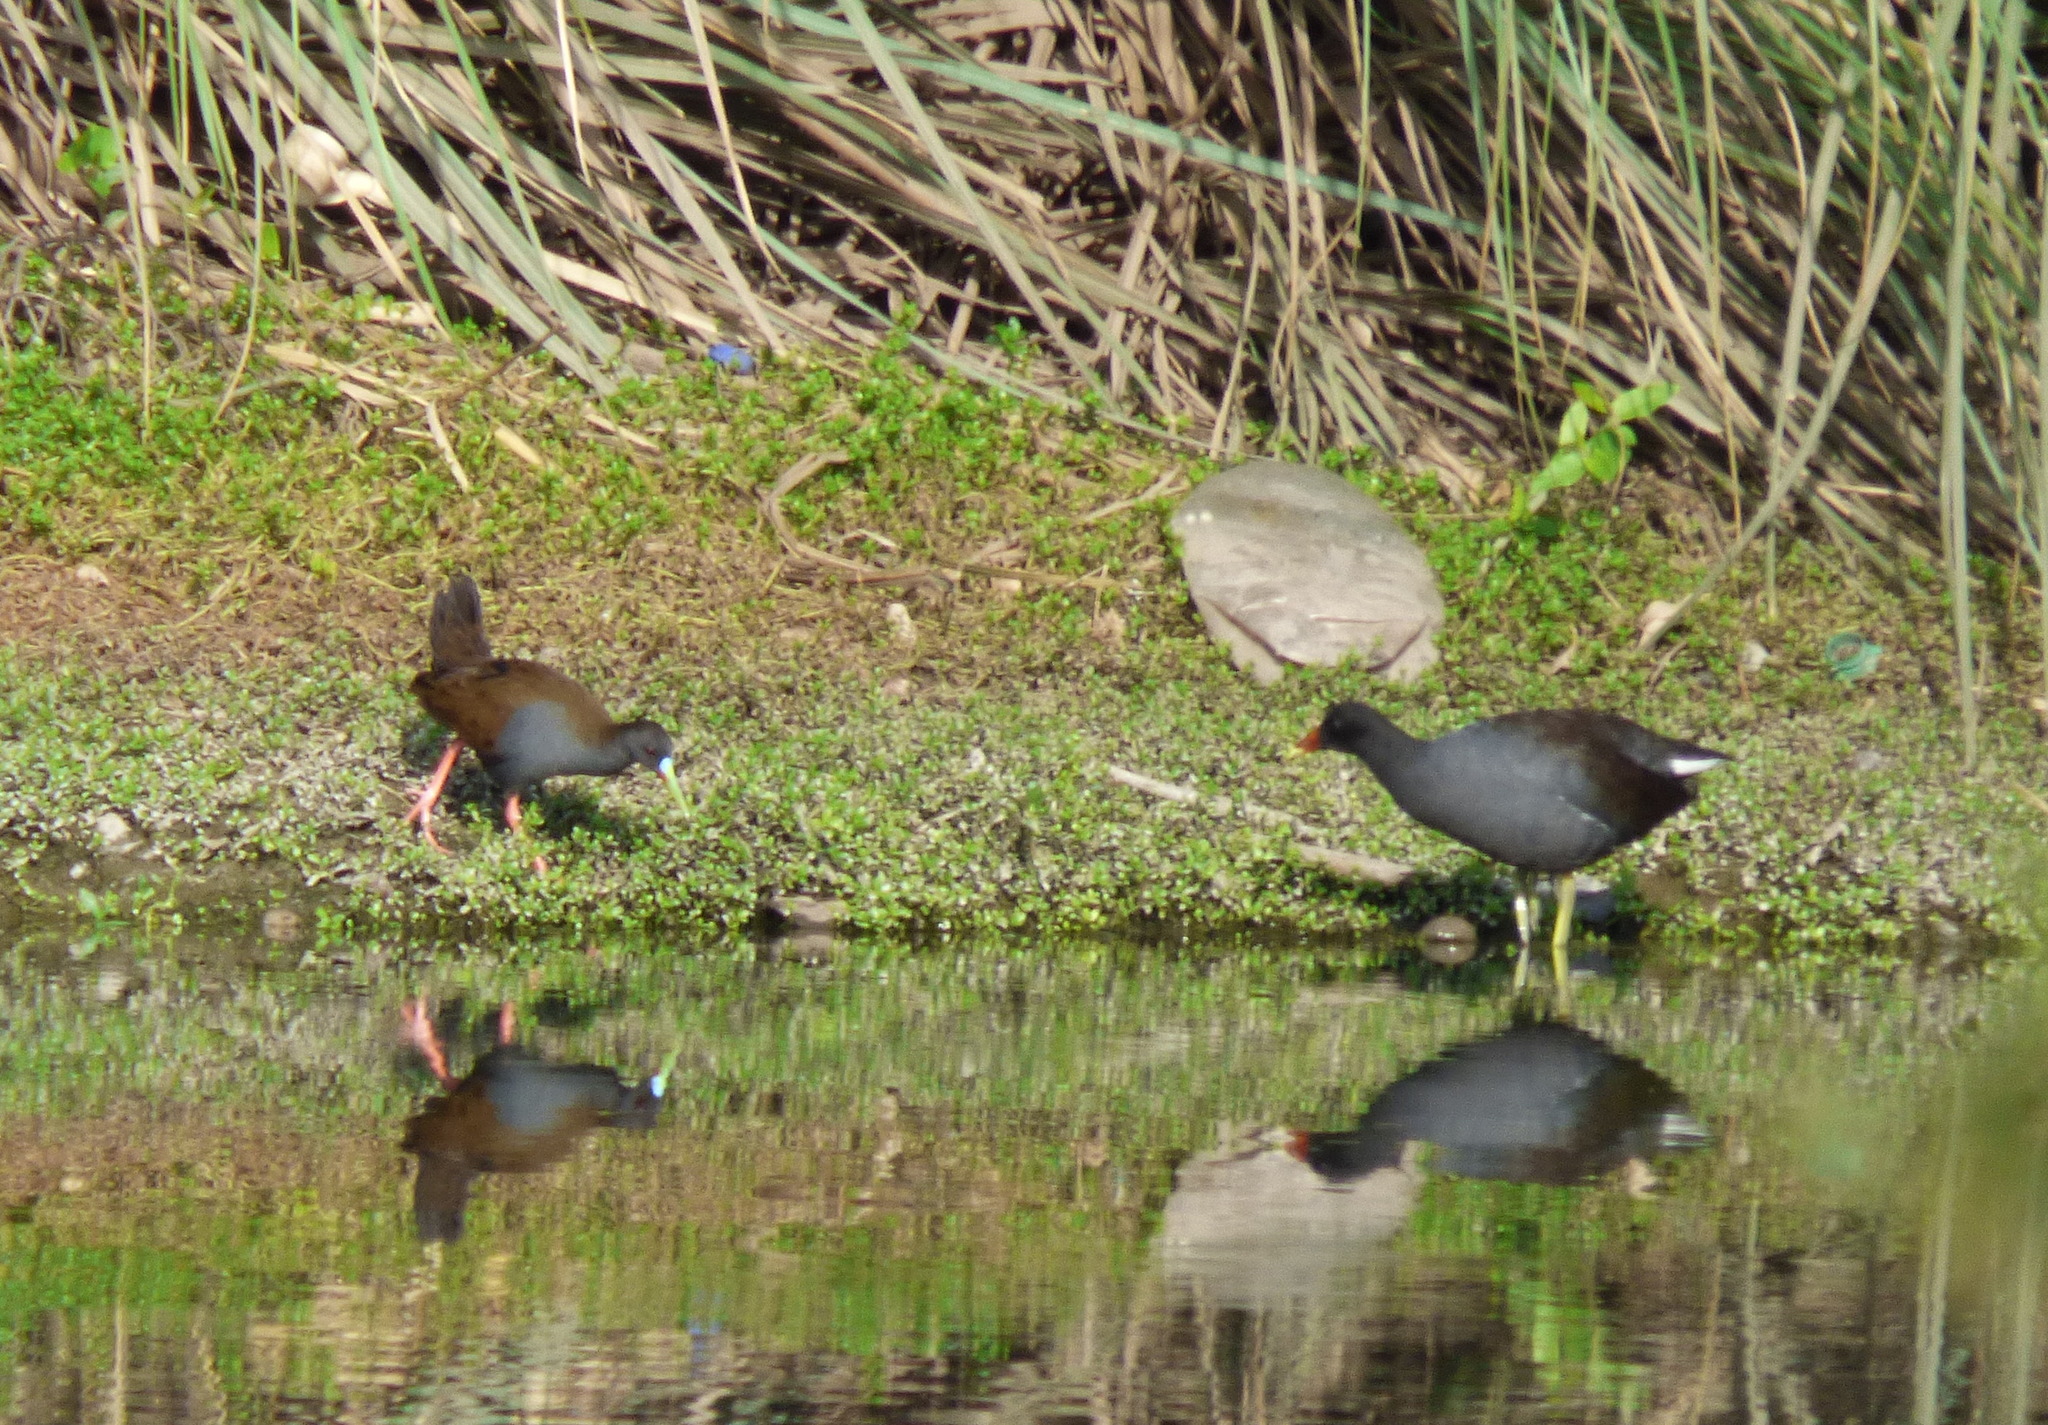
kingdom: Animalia
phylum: Chordata
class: Aves
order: Gruiformes
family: Rallidae
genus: Pardirallus
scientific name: Pardirallus sanguinolentus
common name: Plumbeous rail
